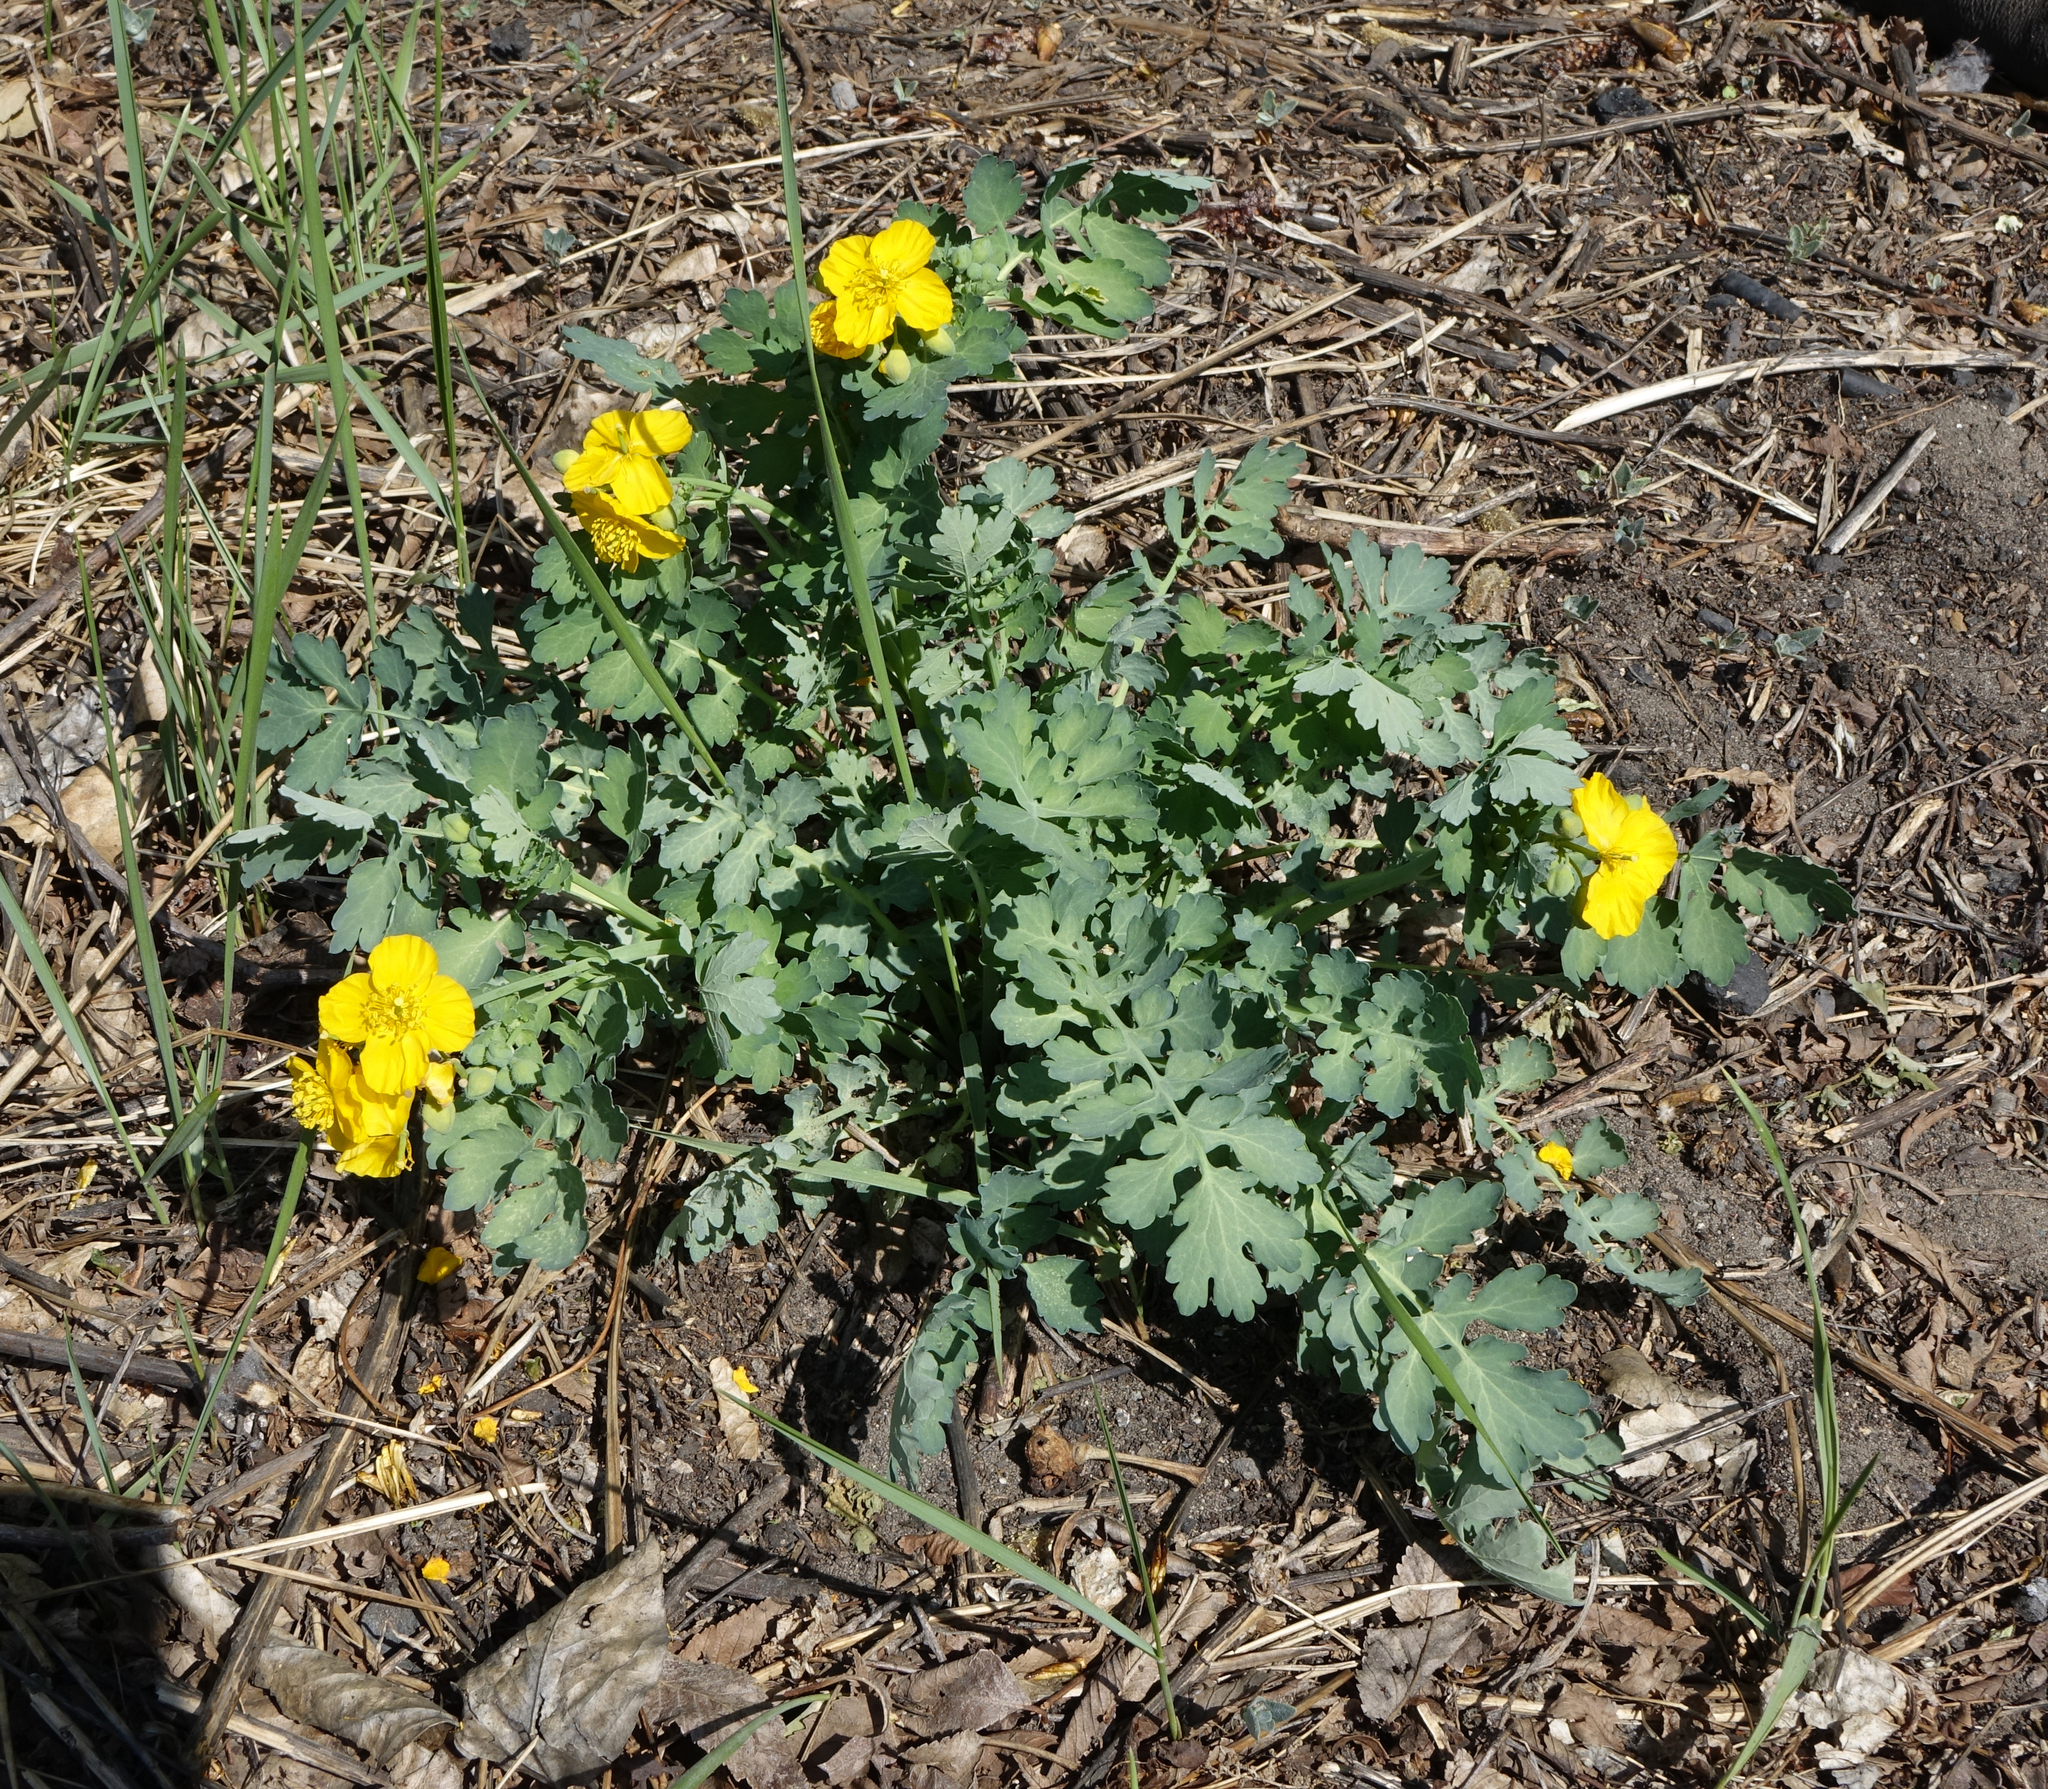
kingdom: Plantae
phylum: Tracheophyta
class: Magnoliopsida
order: Ranunculales
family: Papaveraceae
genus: Chelidonium
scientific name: Chelidonium majus
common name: Greater celandine
